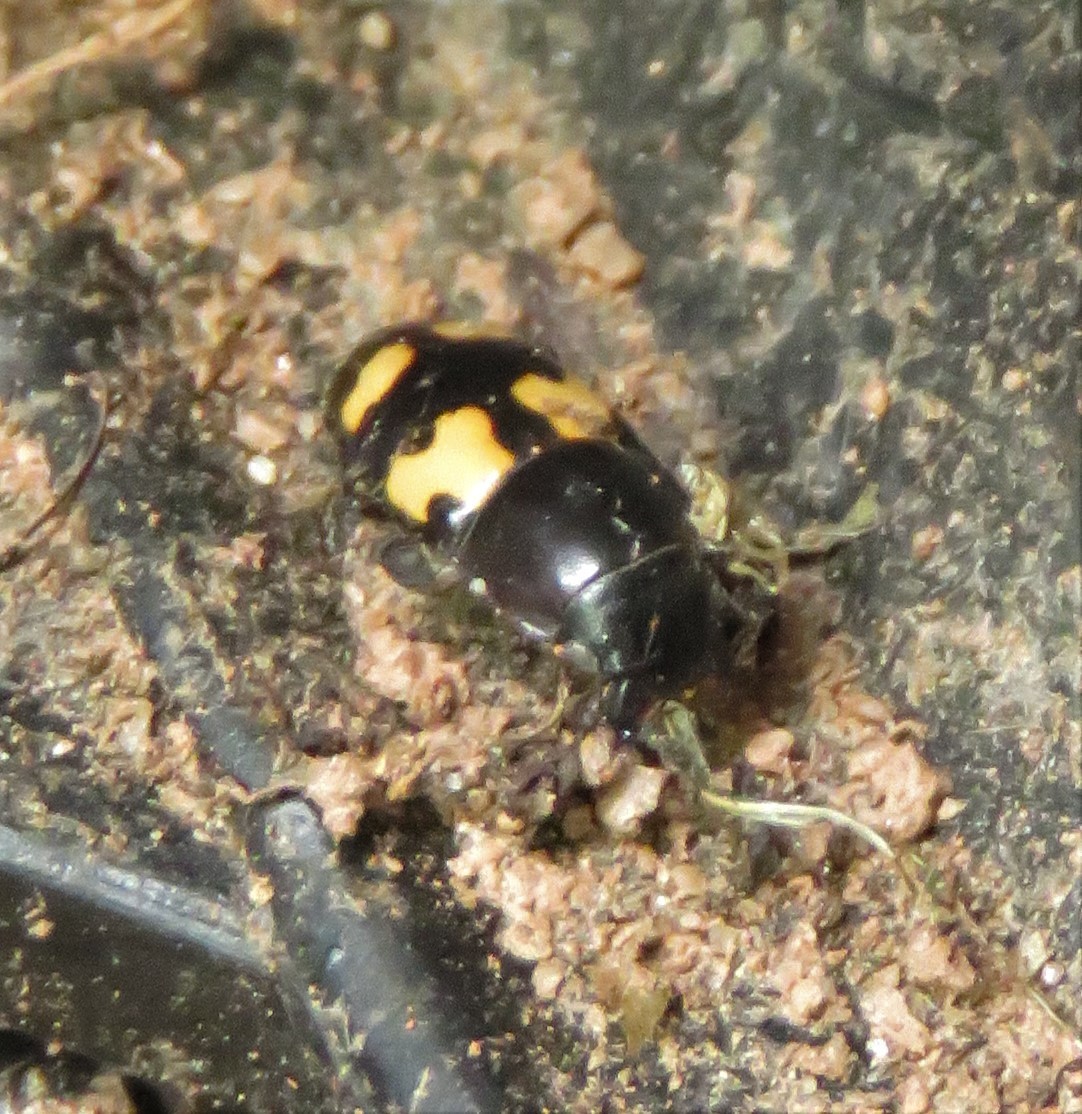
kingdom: Animalia
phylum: Arthropoda
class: Insecta
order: Coleoptera
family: Nitidulidae
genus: Glischrochilus
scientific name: Glischrochilus fasciatus
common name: Picnic beetle
